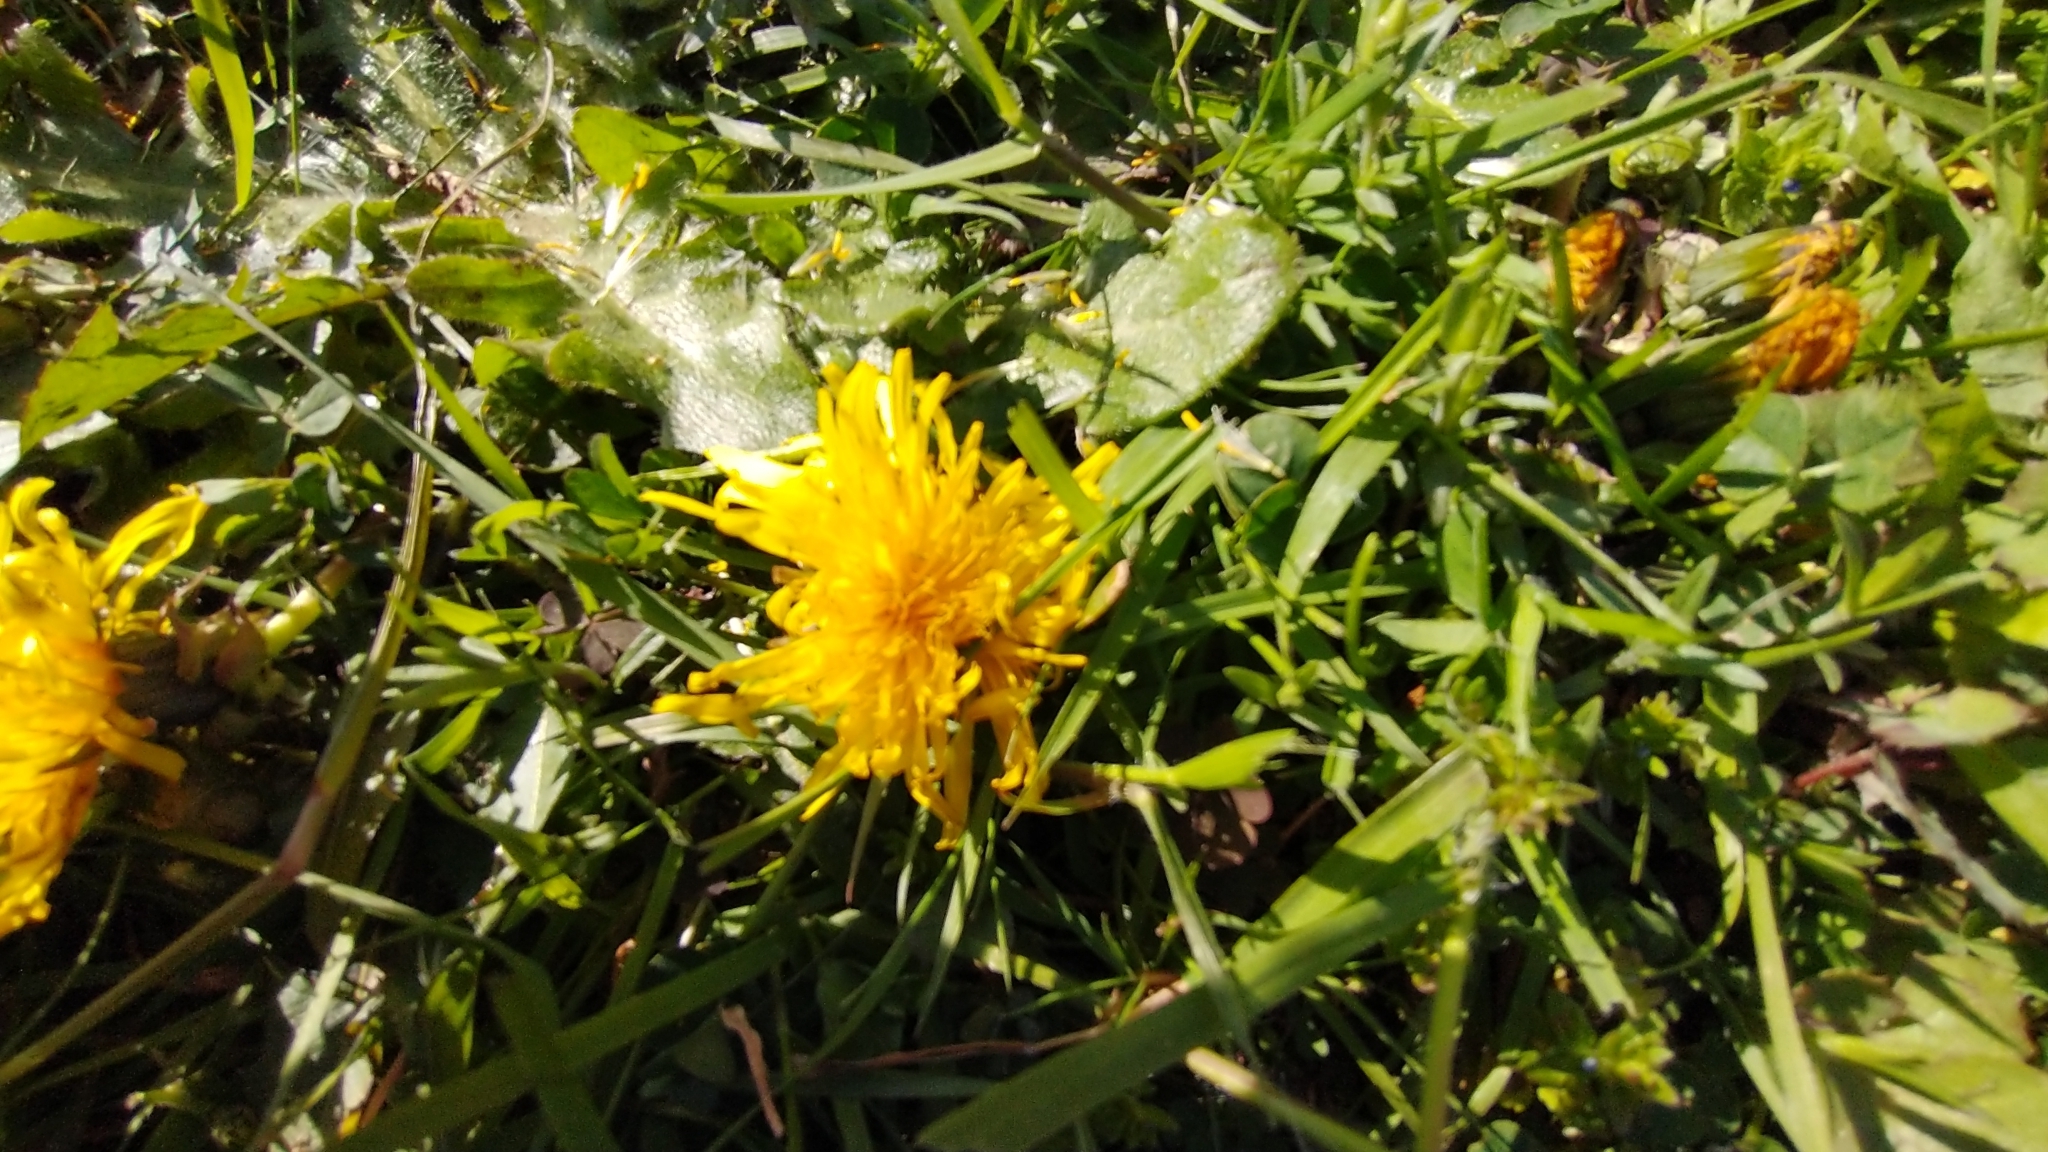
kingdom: Plantae
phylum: Tracheophyta
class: Magnoliopsida
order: Asterales
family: Asteraceae
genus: Taraxacum
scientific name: Taraxacum officinale
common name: Common dandelion
